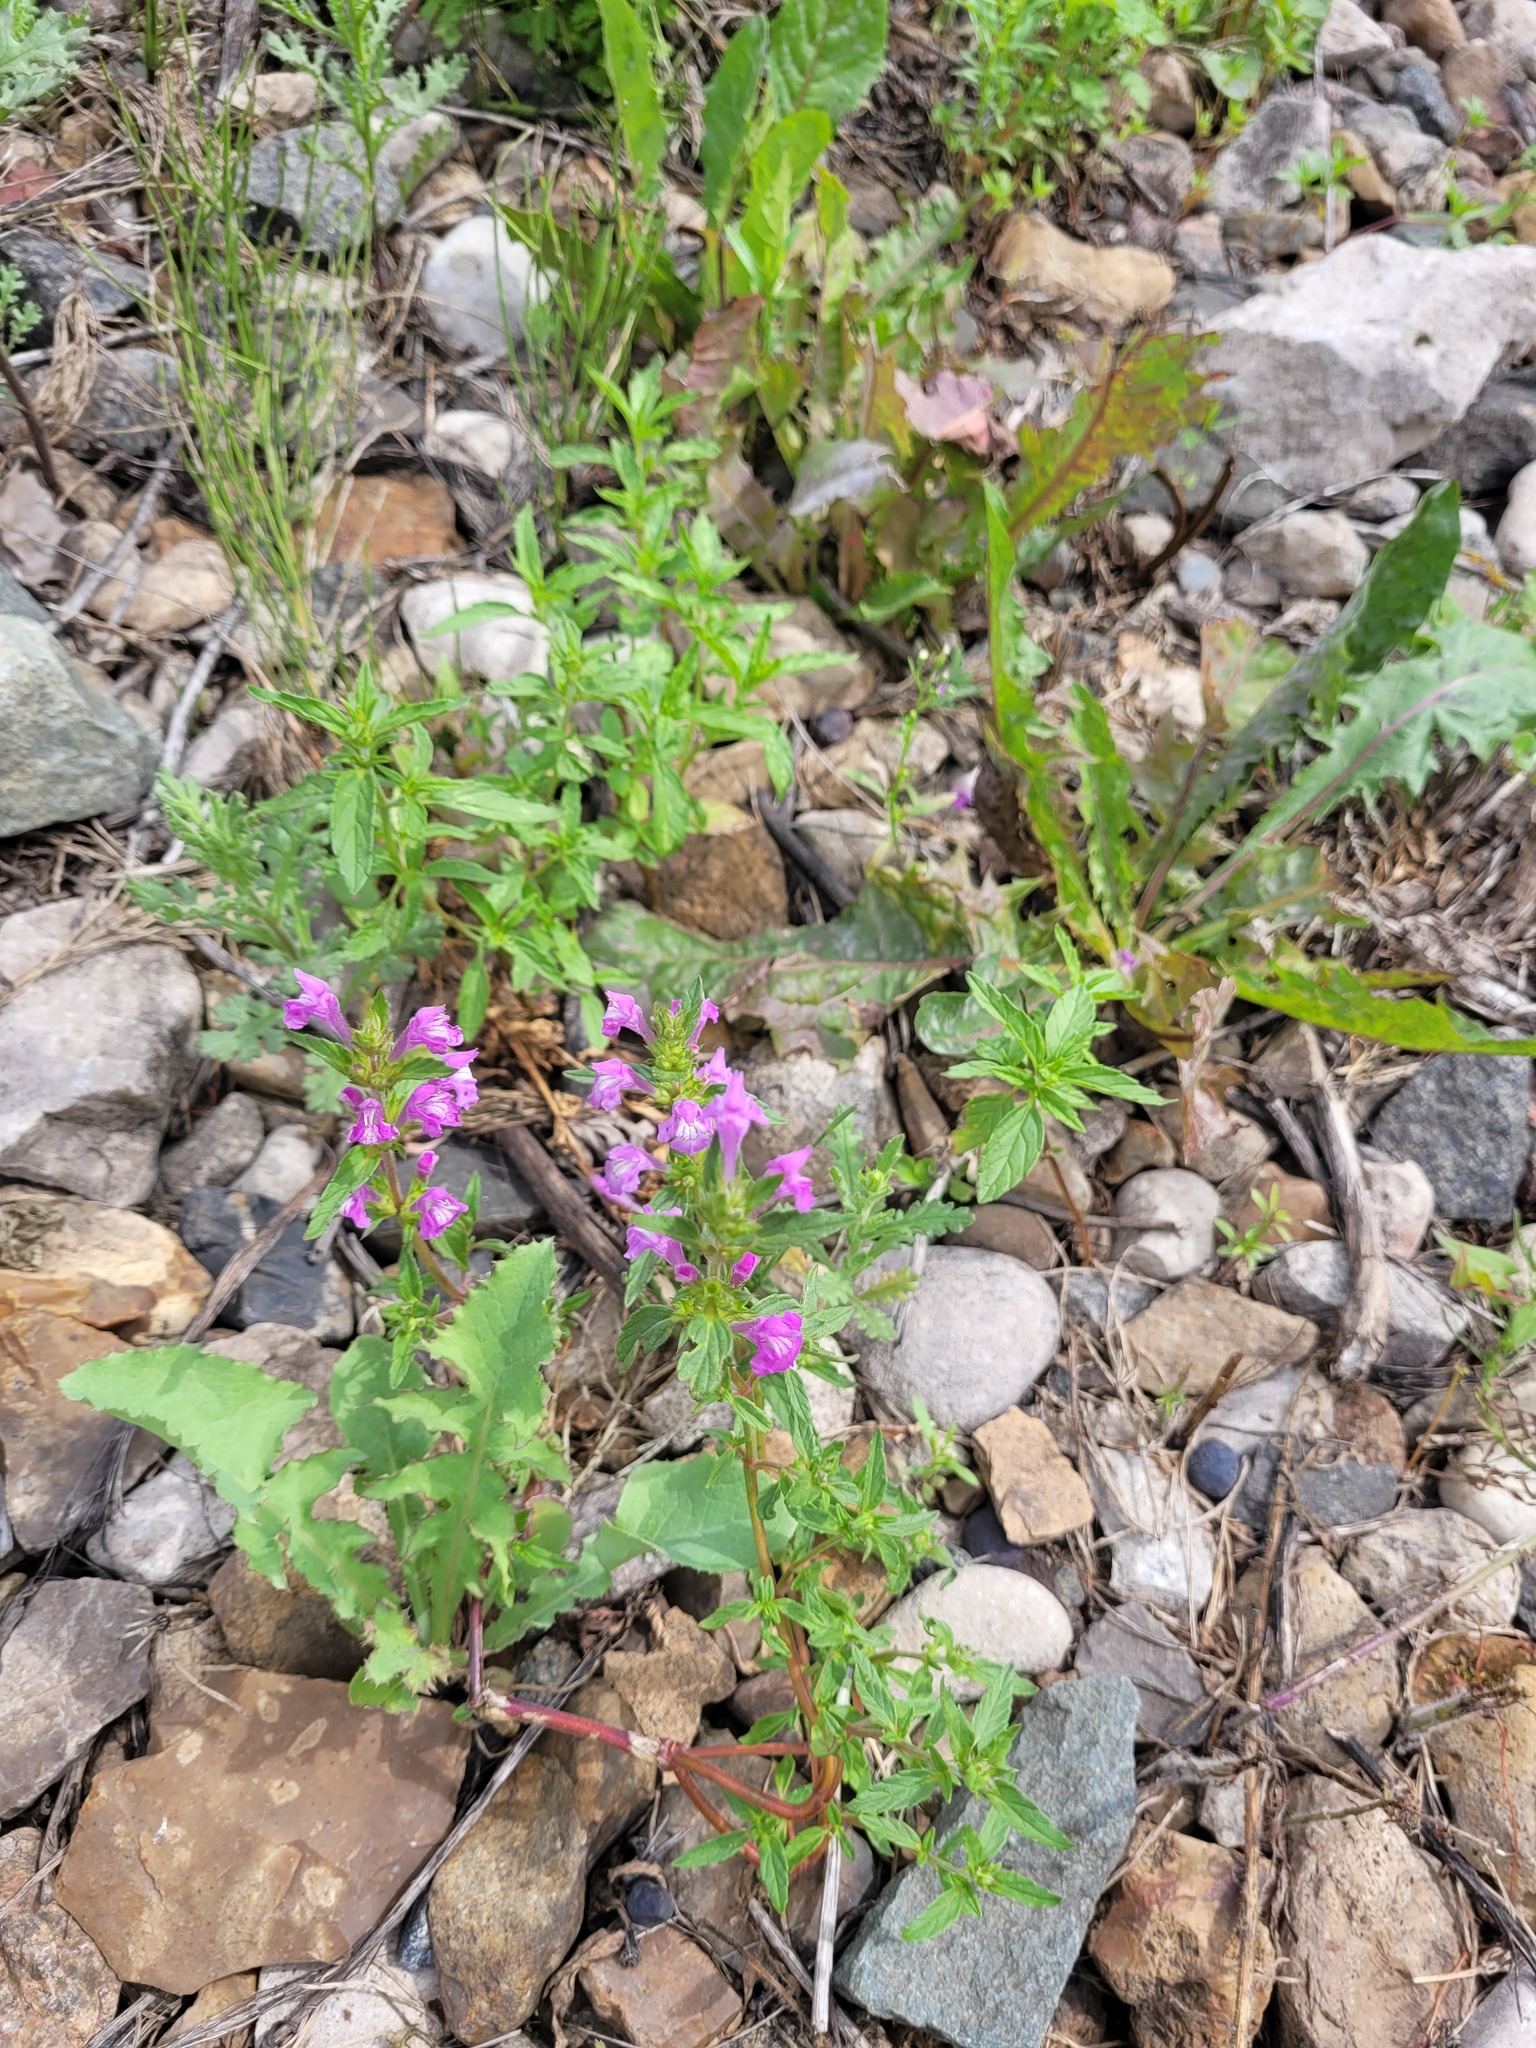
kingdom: Plantae
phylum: Tracheophyta
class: Magnoliopsida
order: Lamiales
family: Lamiaceae
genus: Galeopsis
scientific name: Galeopsis ladanum
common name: Broad-leaved hemp-nettle
